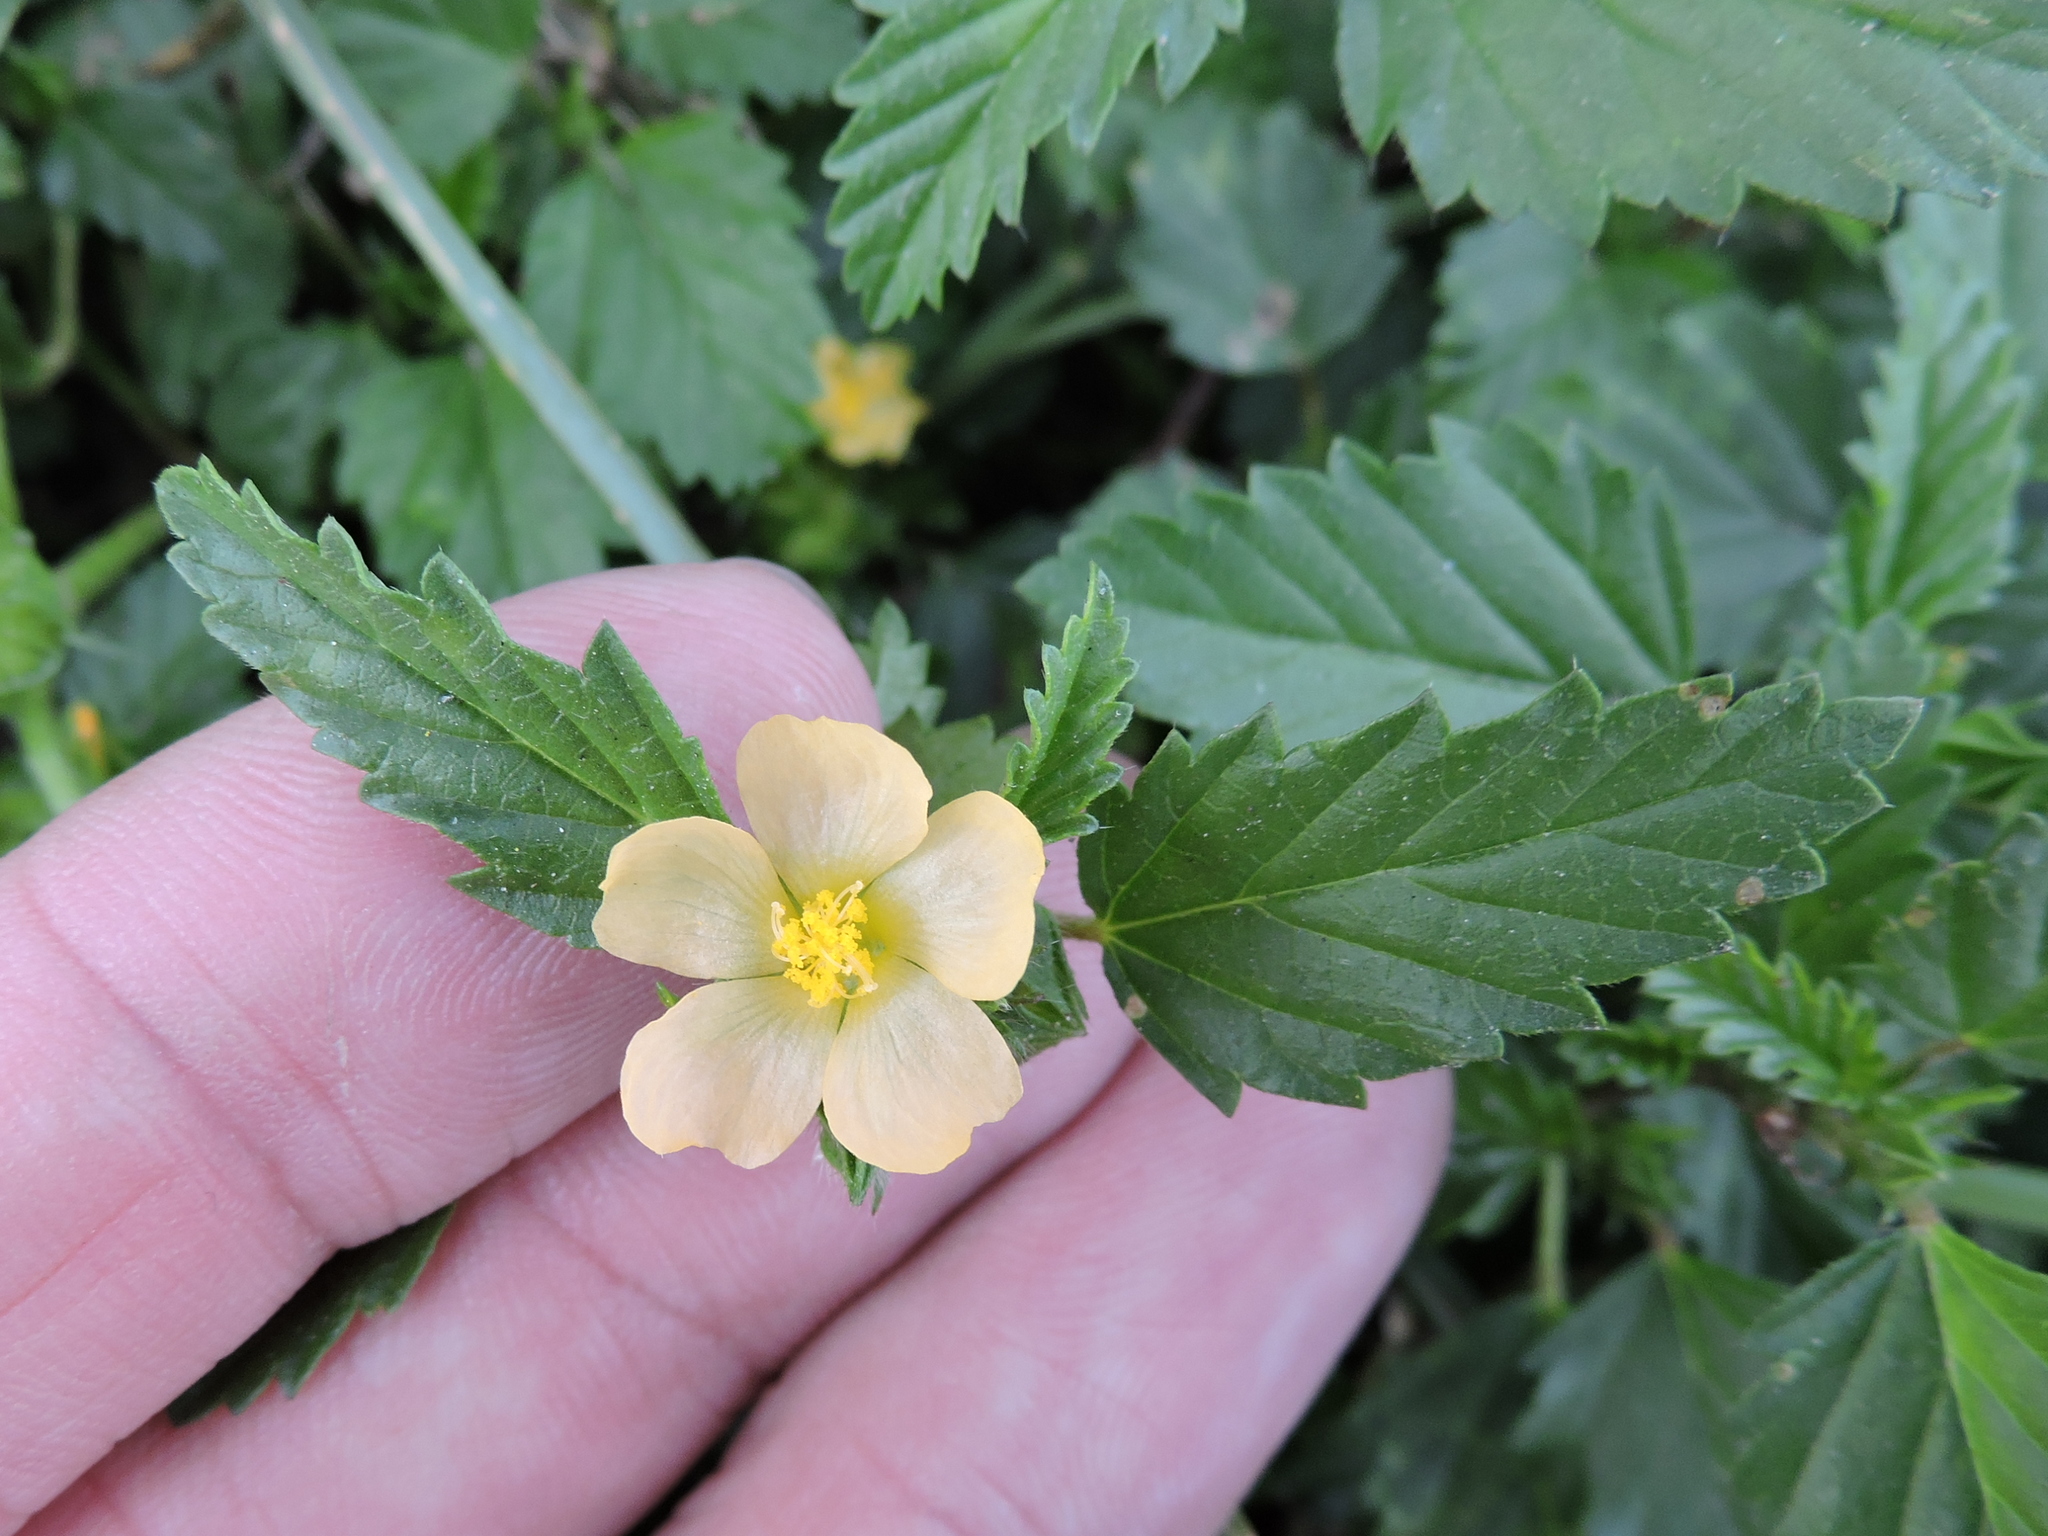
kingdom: Plantae
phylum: Tracheophyta
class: Magnoliopsida
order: Malvales
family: Malvaceae
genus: Malvastrum
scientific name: Malvastrum coromandelianum
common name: Threelobe false mallow
